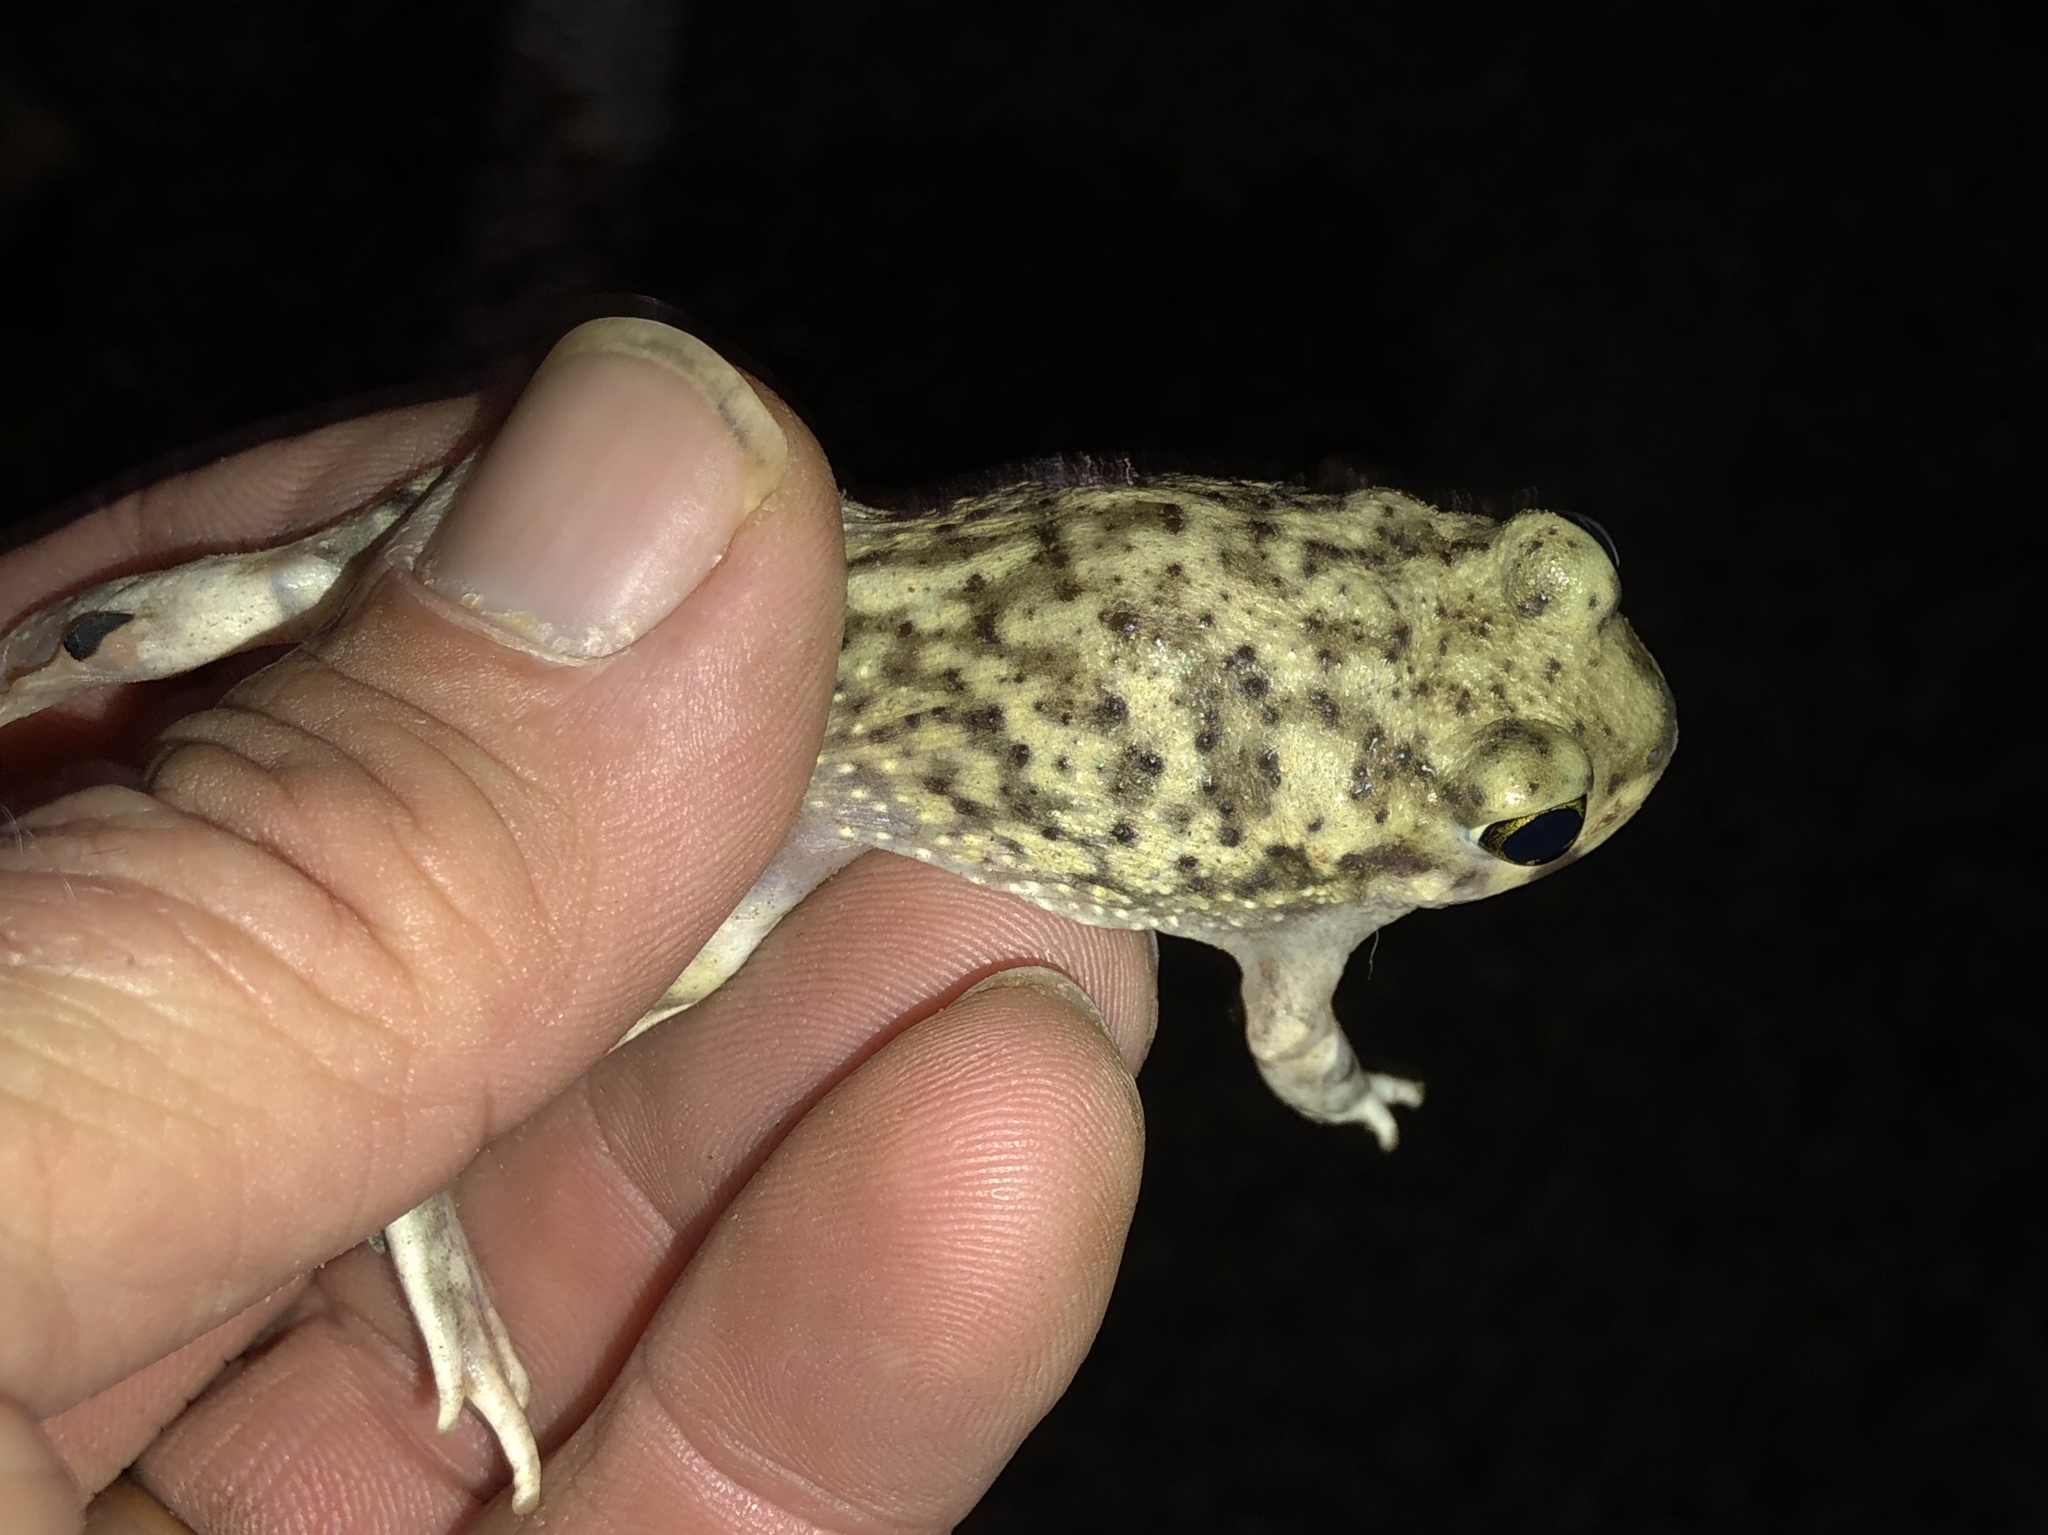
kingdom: Animalia
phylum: Chordata
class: Amphibia
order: Anura
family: Scaphiopodidae
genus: Scaphiopus
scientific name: Scaphiopus couchii
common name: Couch's spadefoot toad
